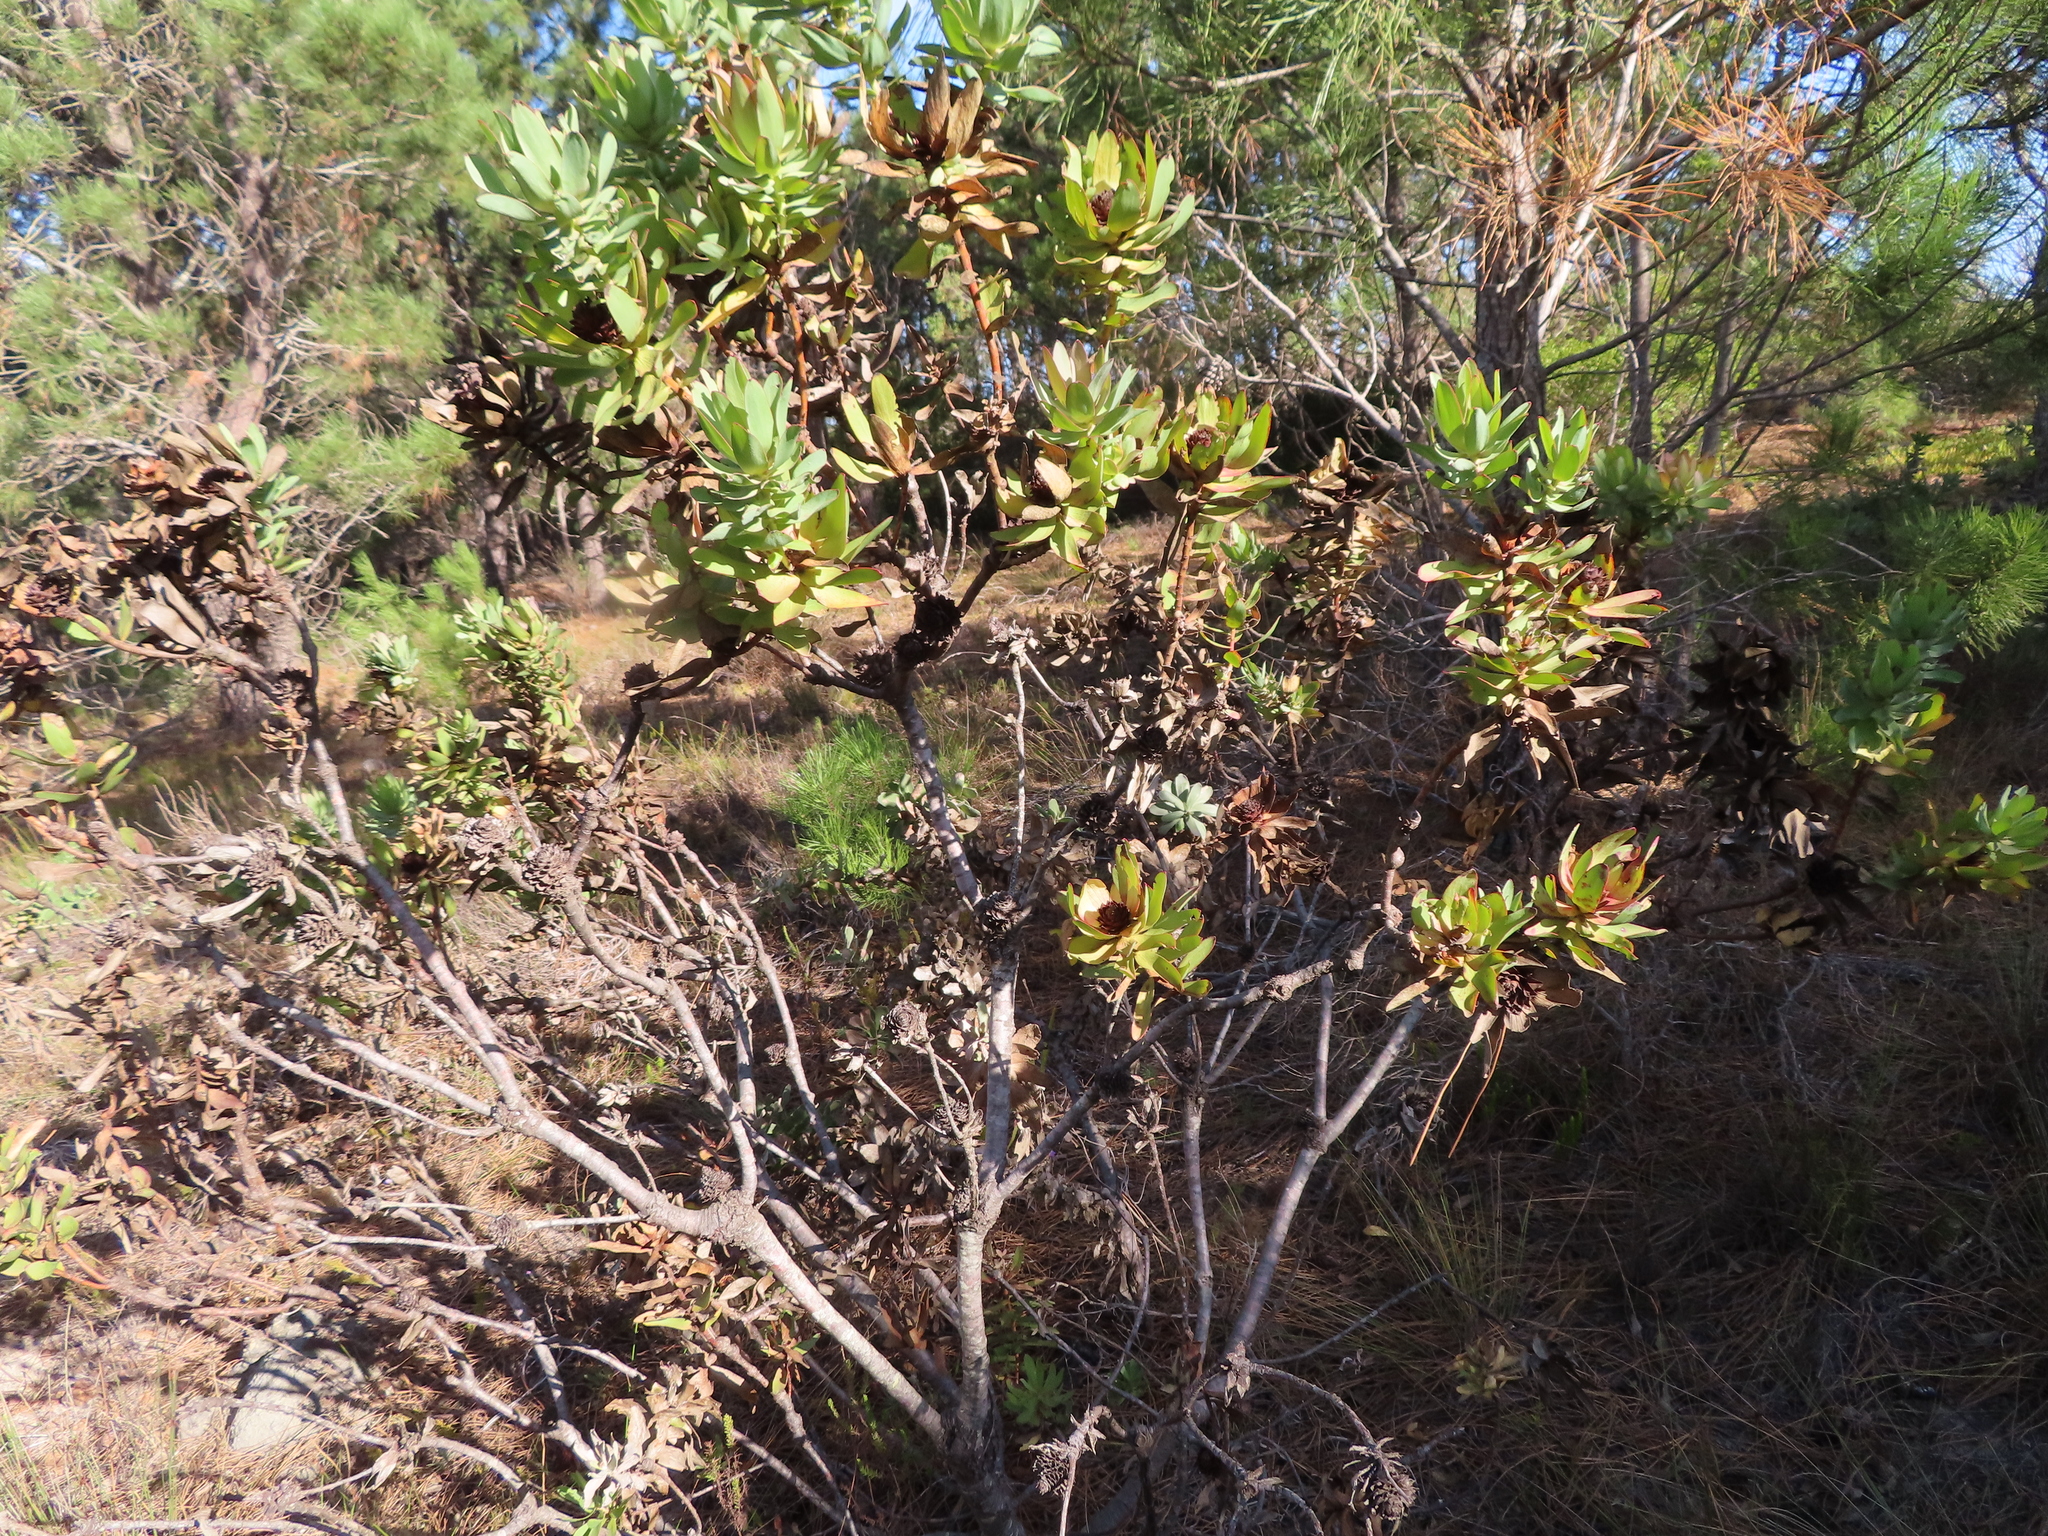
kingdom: Plantae
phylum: Tracheophyta
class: Magnoliopsida
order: Proteales
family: Proteaceae
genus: Leucadendron
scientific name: Leucadendron elimense
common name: Elim conebush
